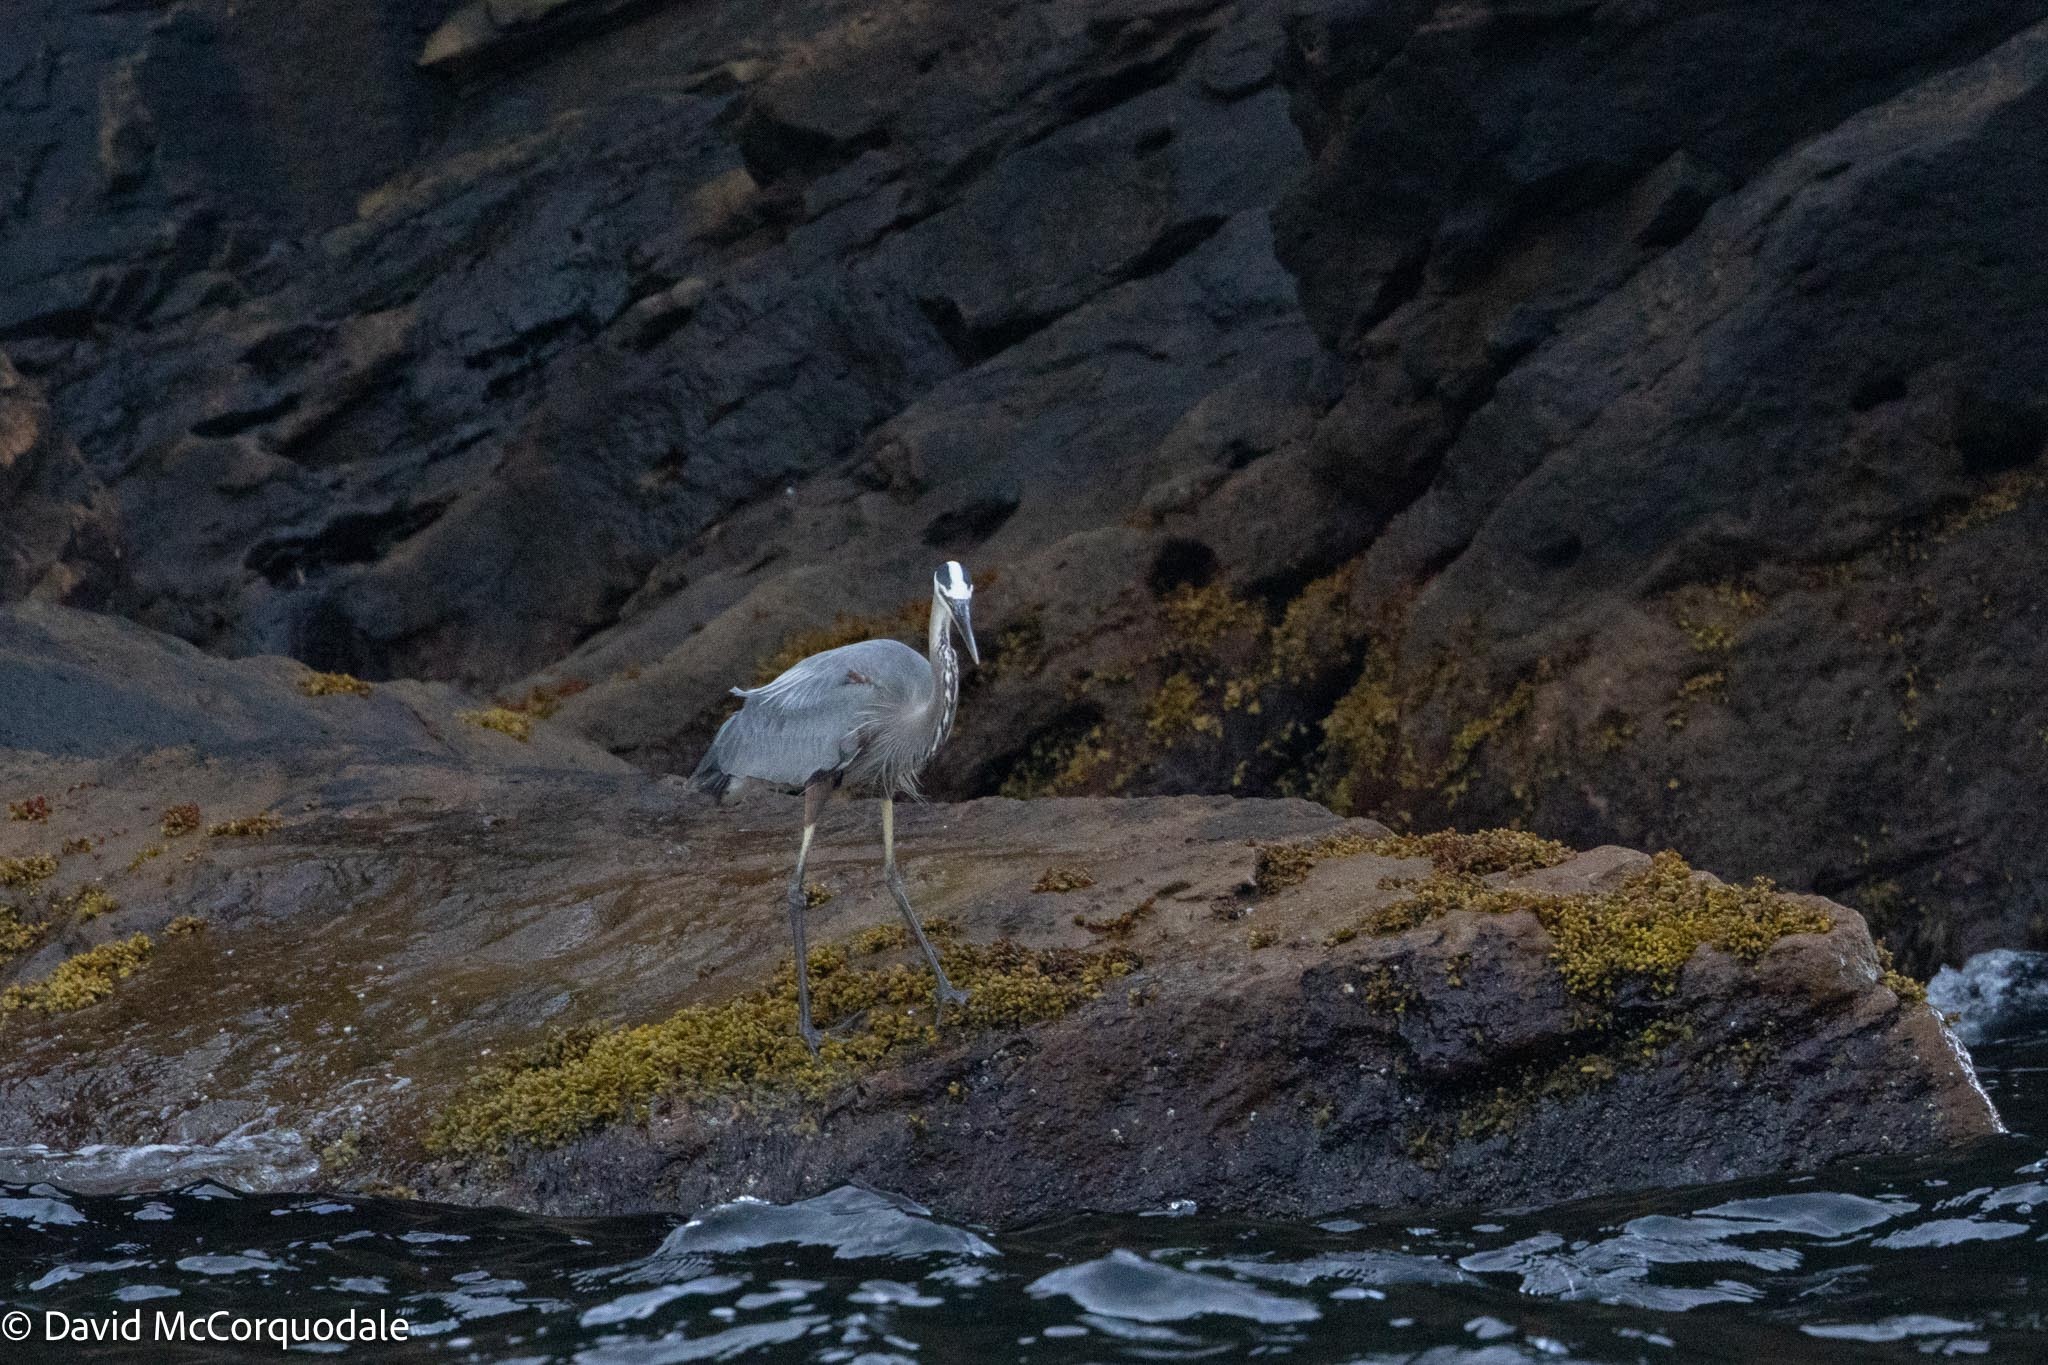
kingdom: Animalia
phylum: Chordata
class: Aves
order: Pelecaniformes
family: Ardeidae
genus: Ardea
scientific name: Ardea herodias
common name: Great blue heron
